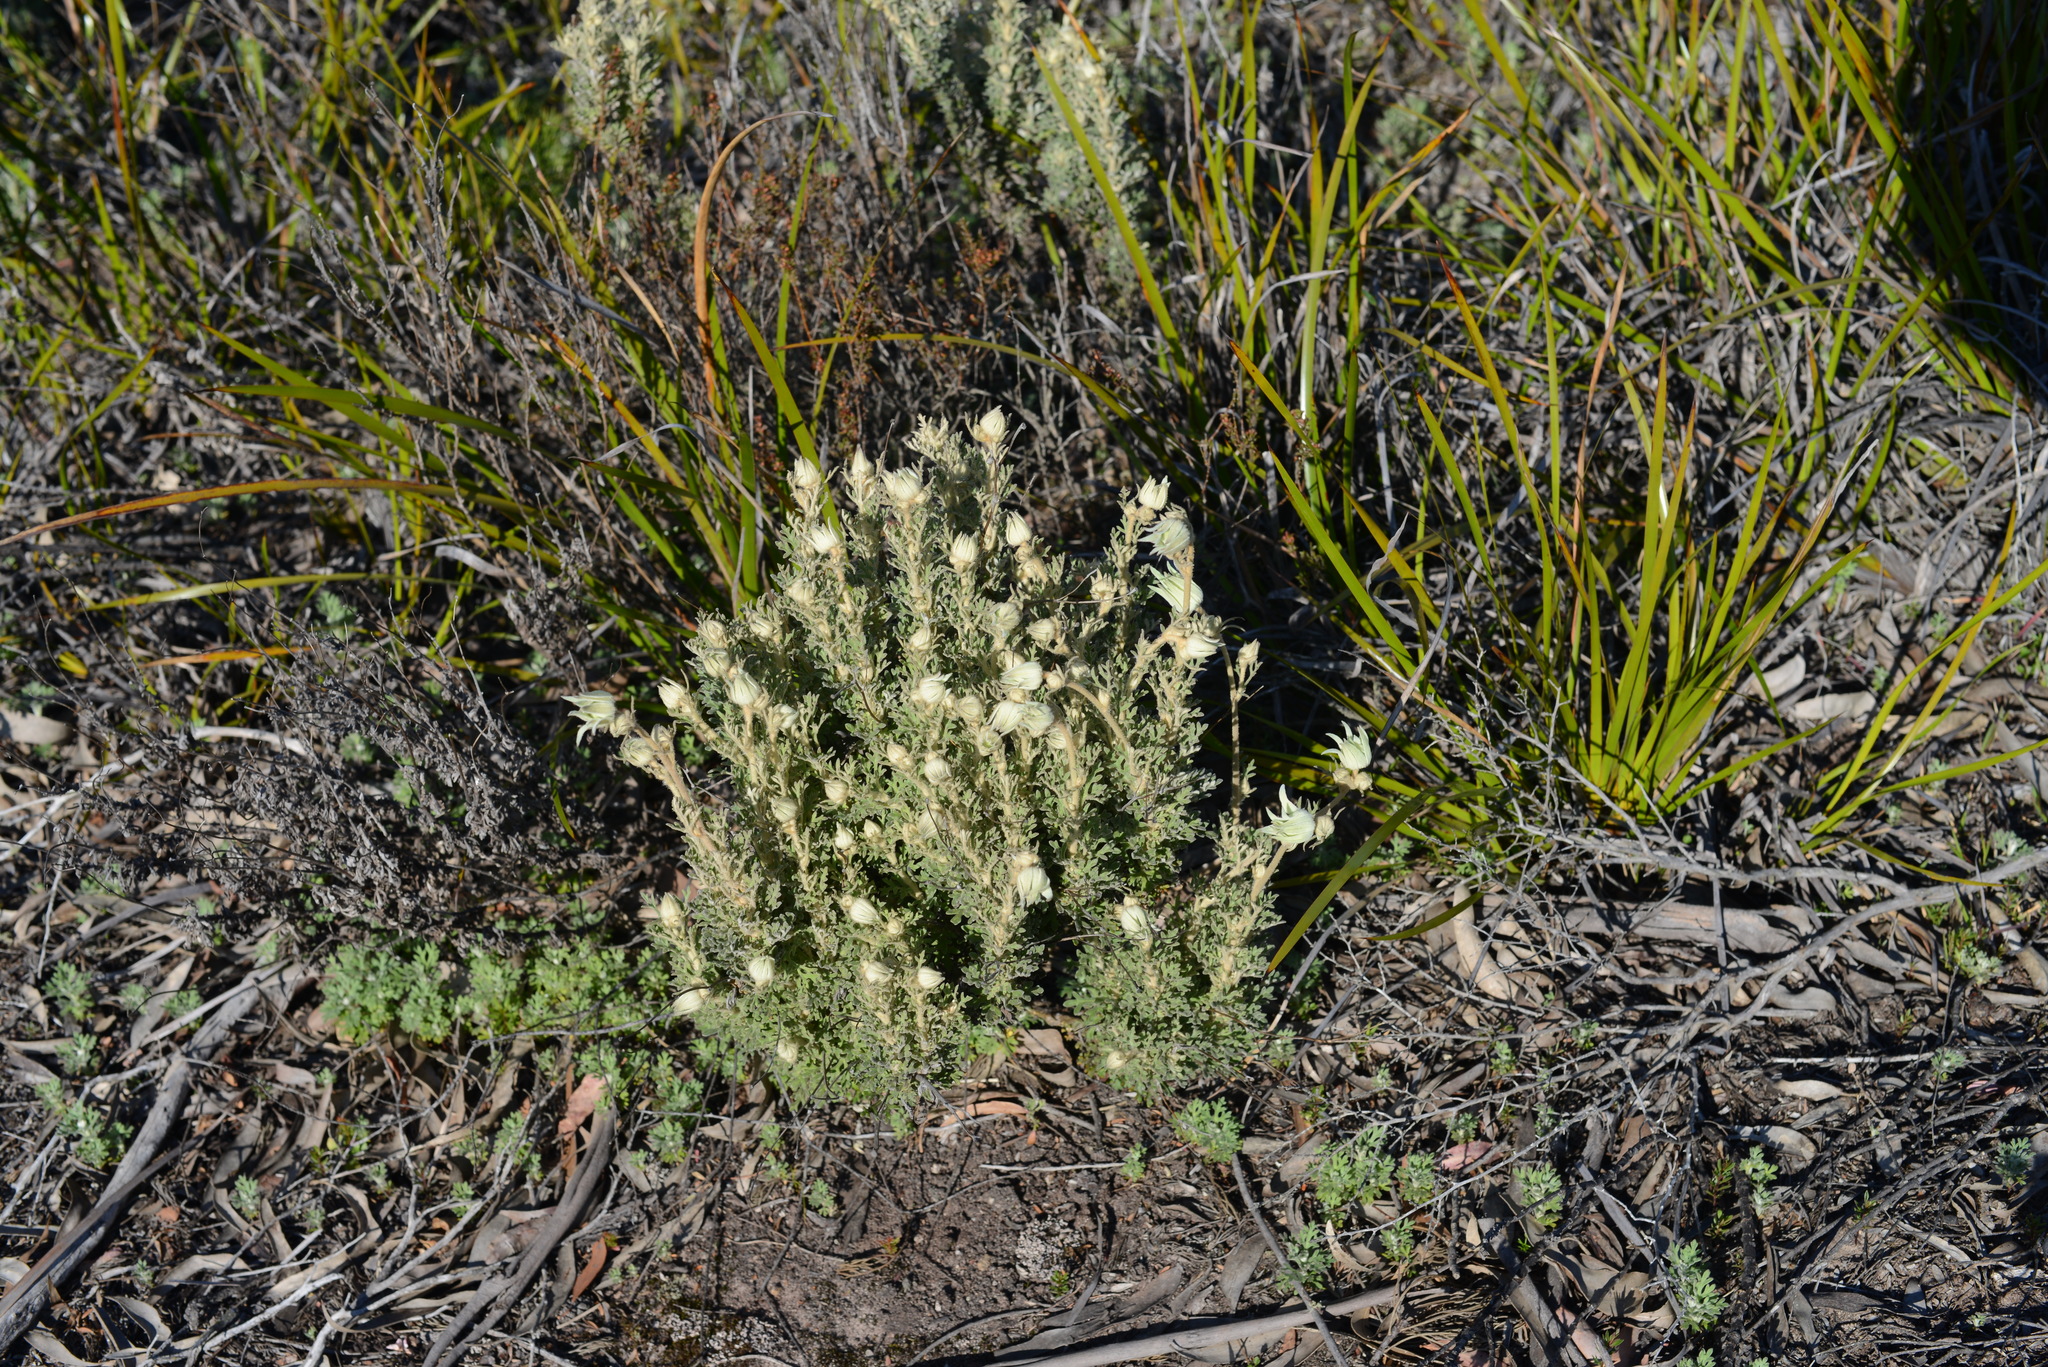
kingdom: Plantae
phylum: Tracheophyta
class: Magnoliopsida
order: Apiales
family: Apiaceae
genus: Actinotus
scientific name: Actinotus helianthi
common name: Flannel-flower
